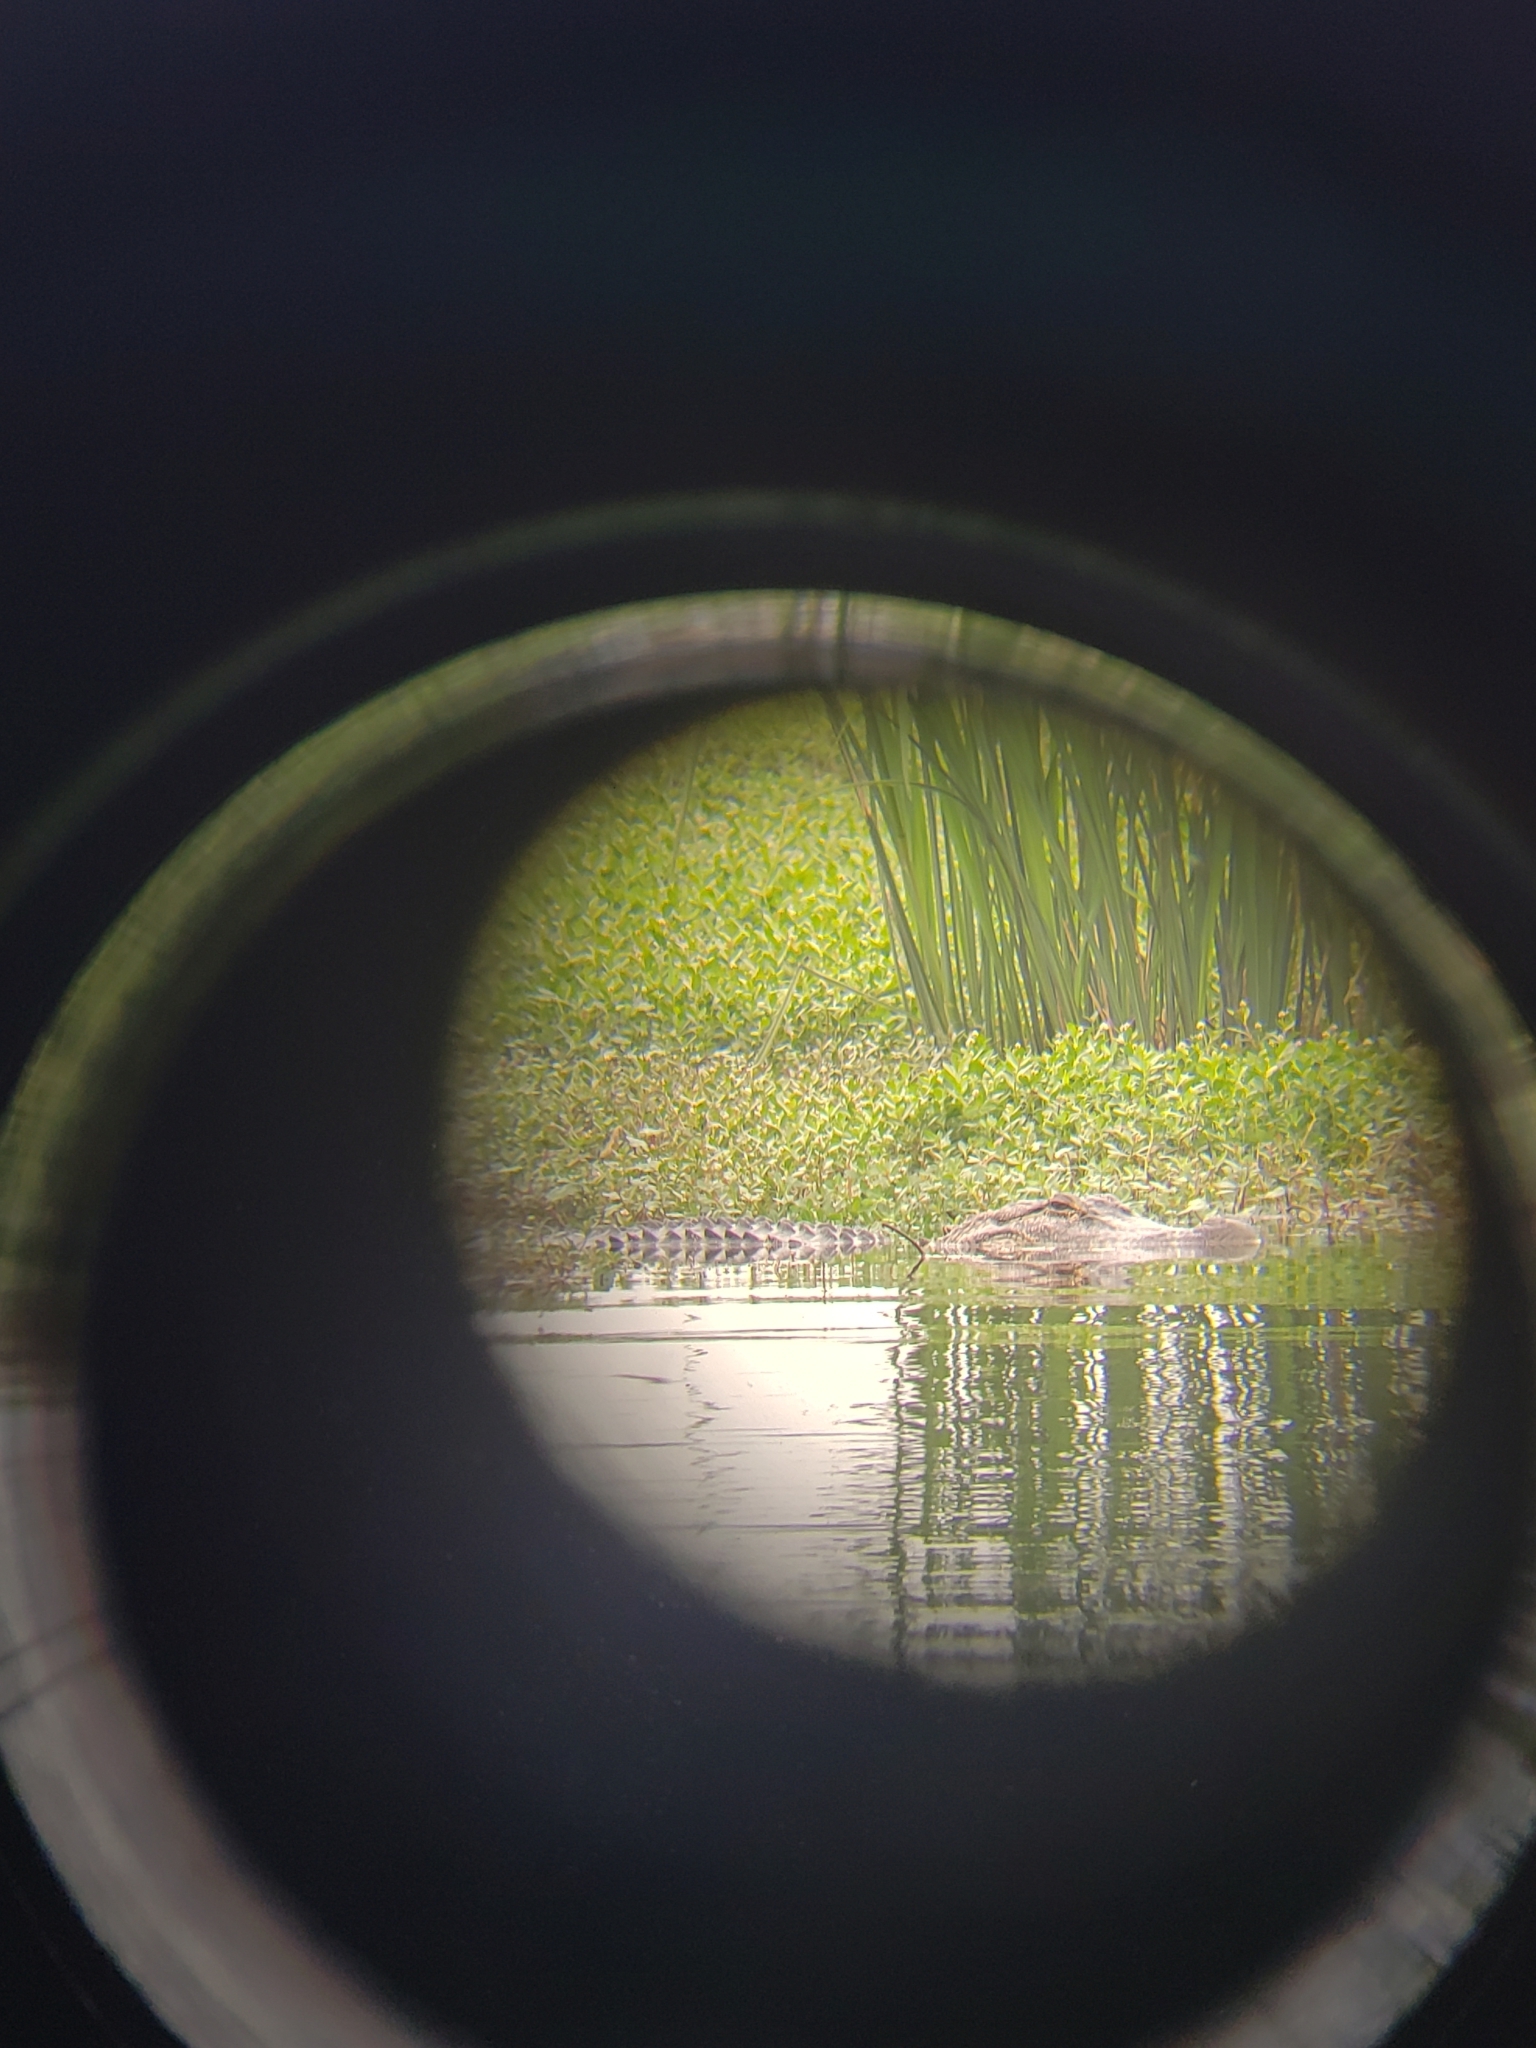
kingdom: Animalia
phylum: Chordata
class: Crocodylia
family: Alligatoridae
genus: Alligator
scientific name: Alligator mississippiensis
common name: American alligator
